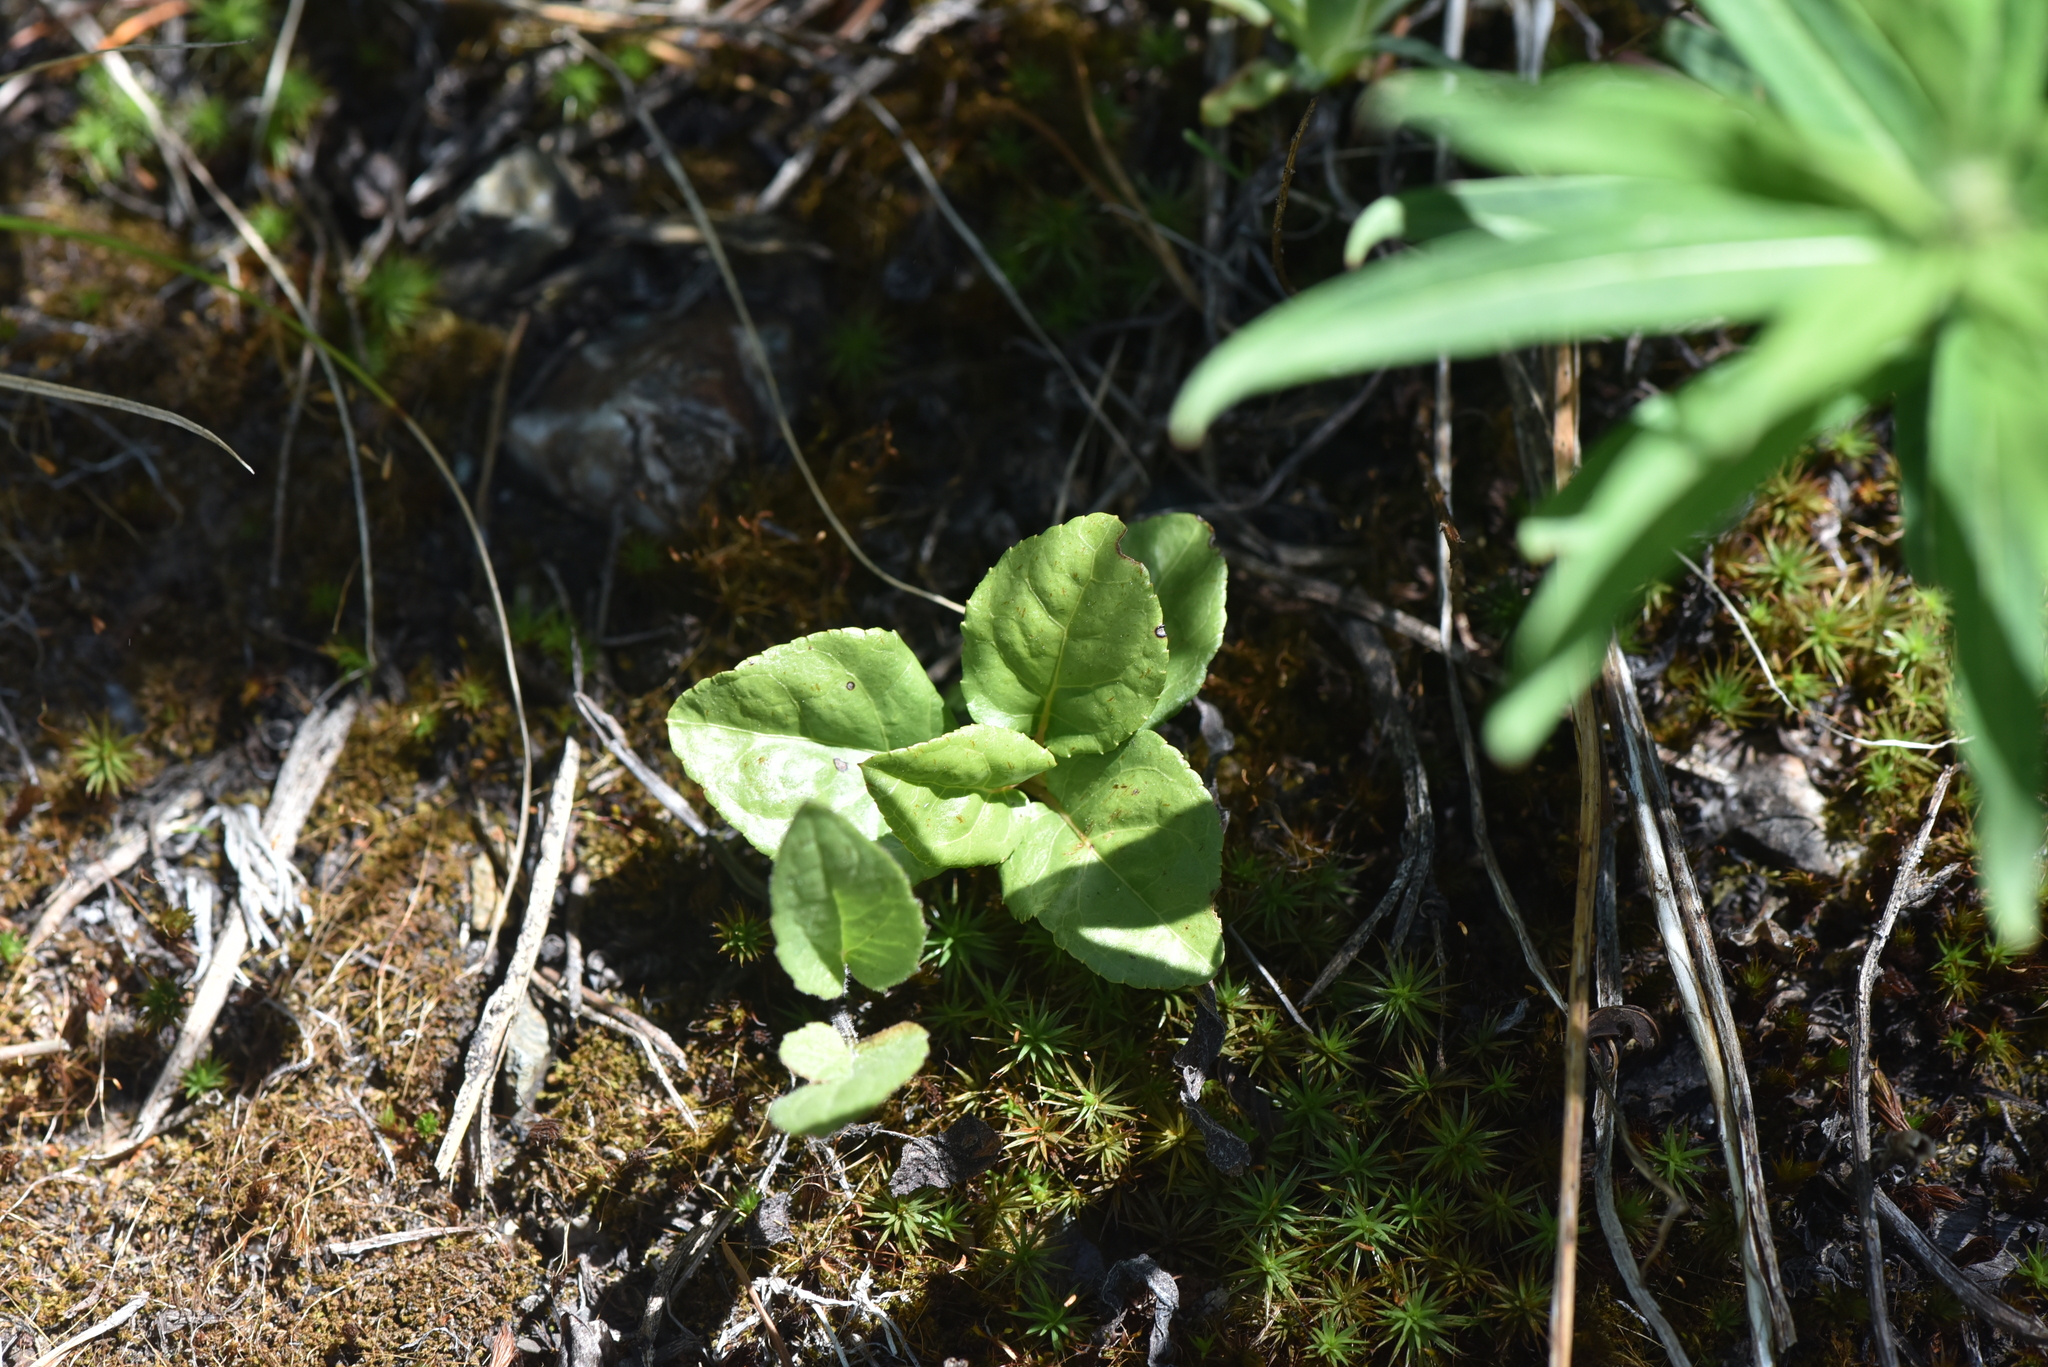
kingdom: Plantae
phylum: Tracheophyta
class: Magnoliopsida
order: Ericales
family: Ericaceae
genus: Orthilia
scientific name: Orthilia secunda
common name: One-sided orthilia
